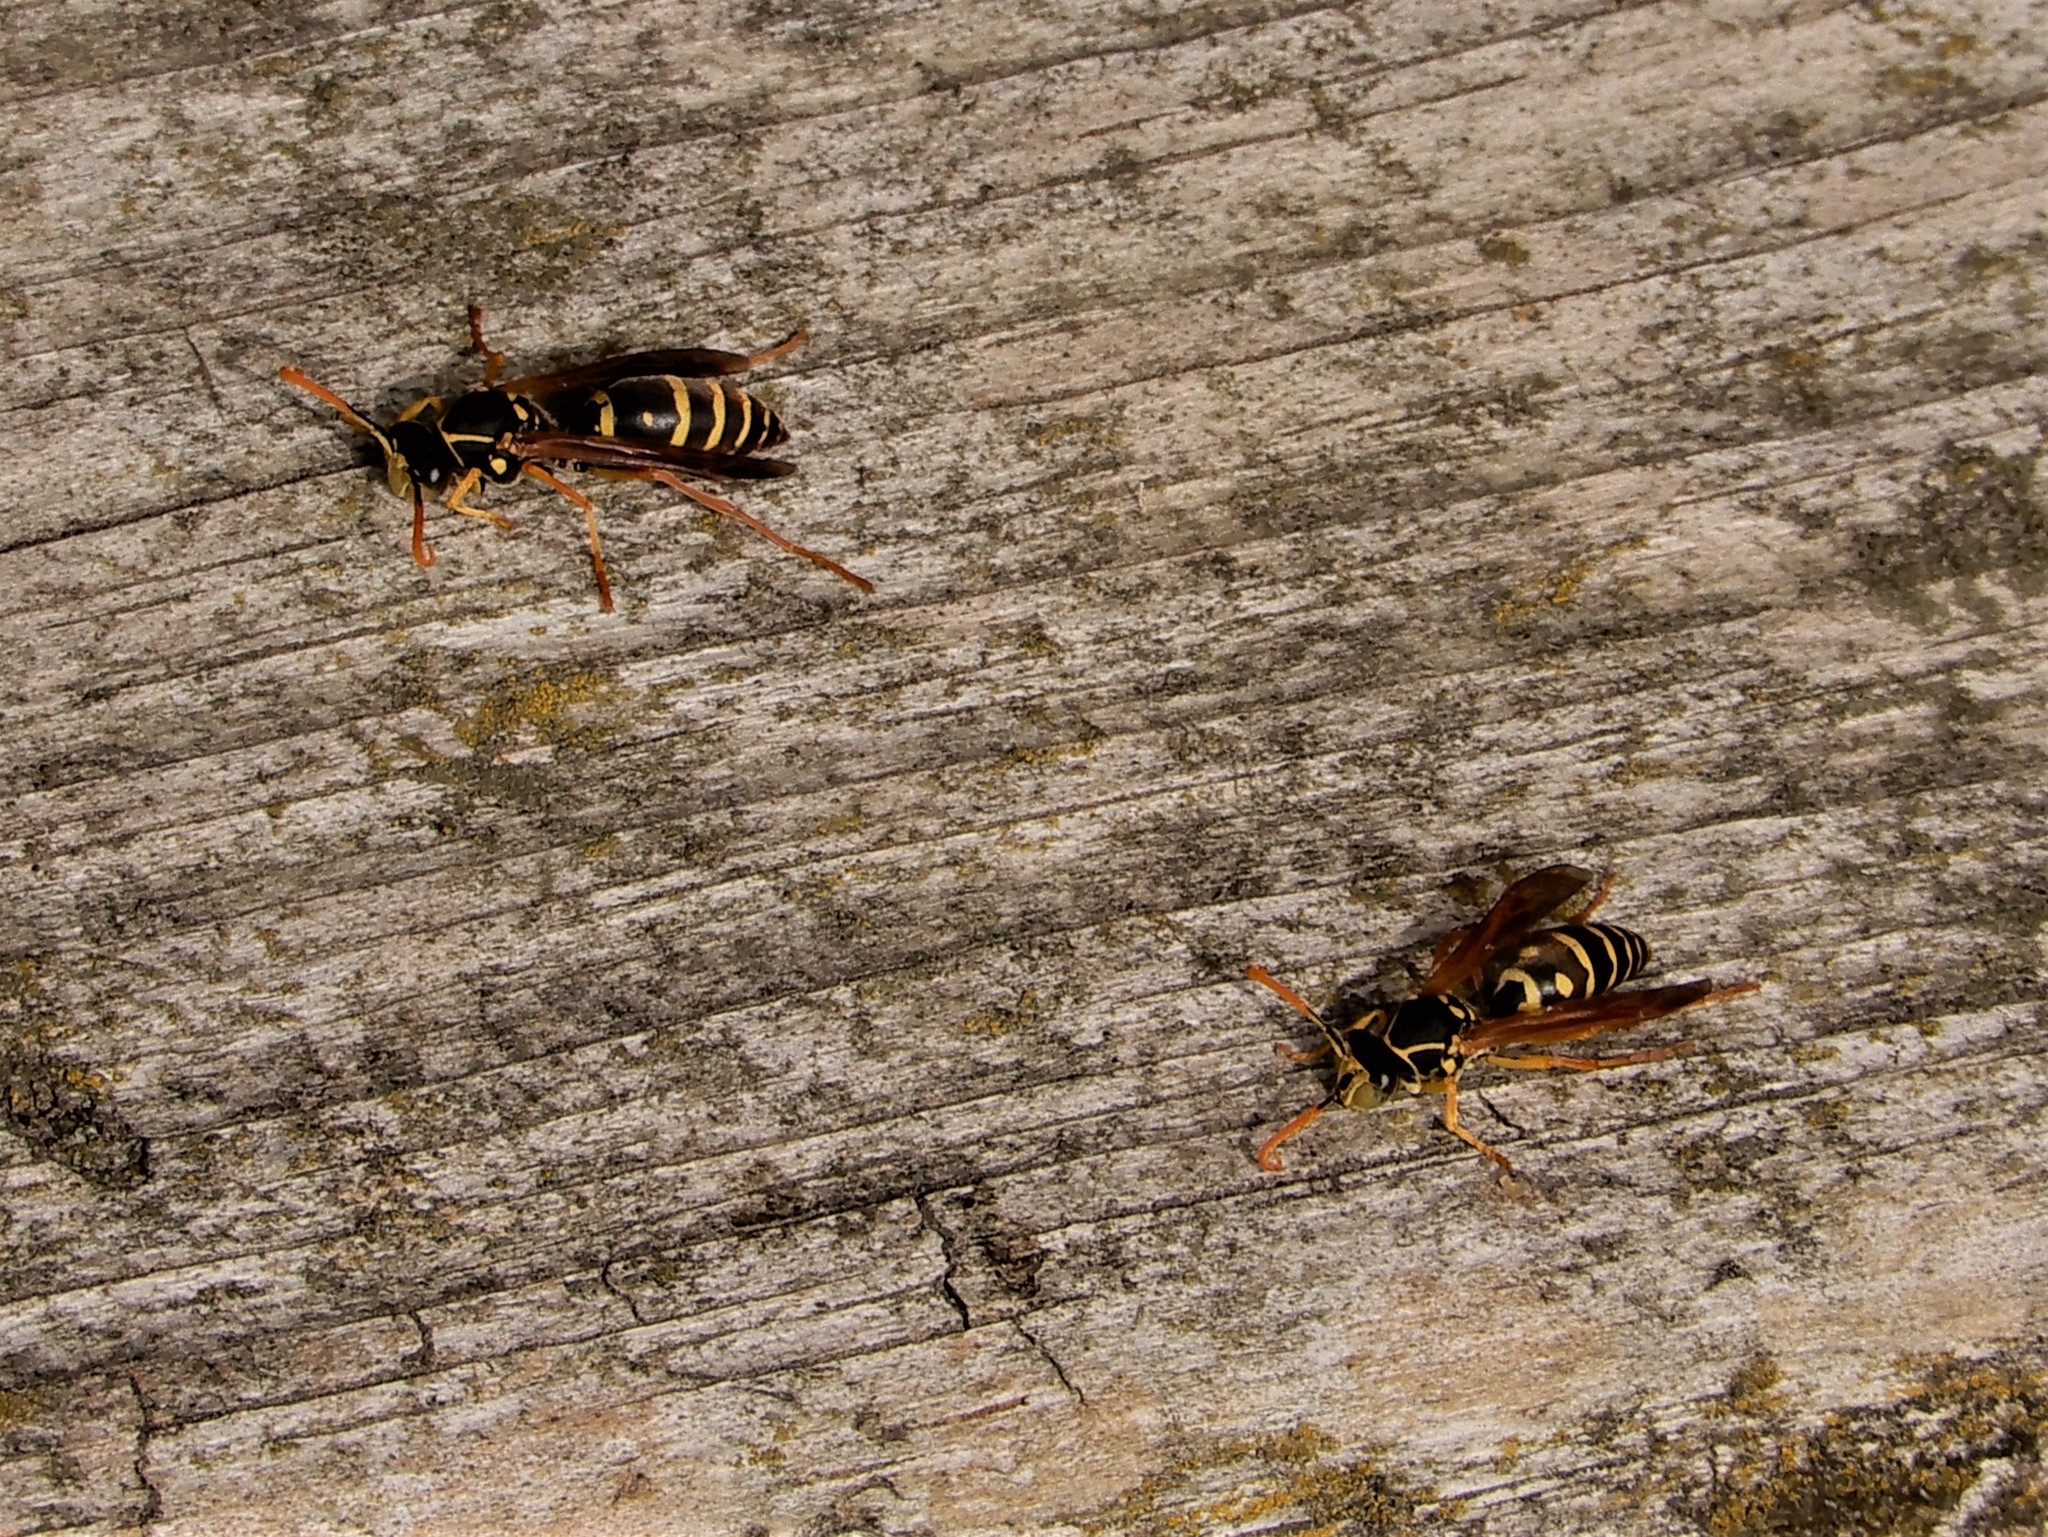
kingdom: Animalia
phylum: Arthropoda
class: Insecta
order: Hymenoptera
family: Eumenidae
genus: Polistes
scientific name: Polistes chinensis
